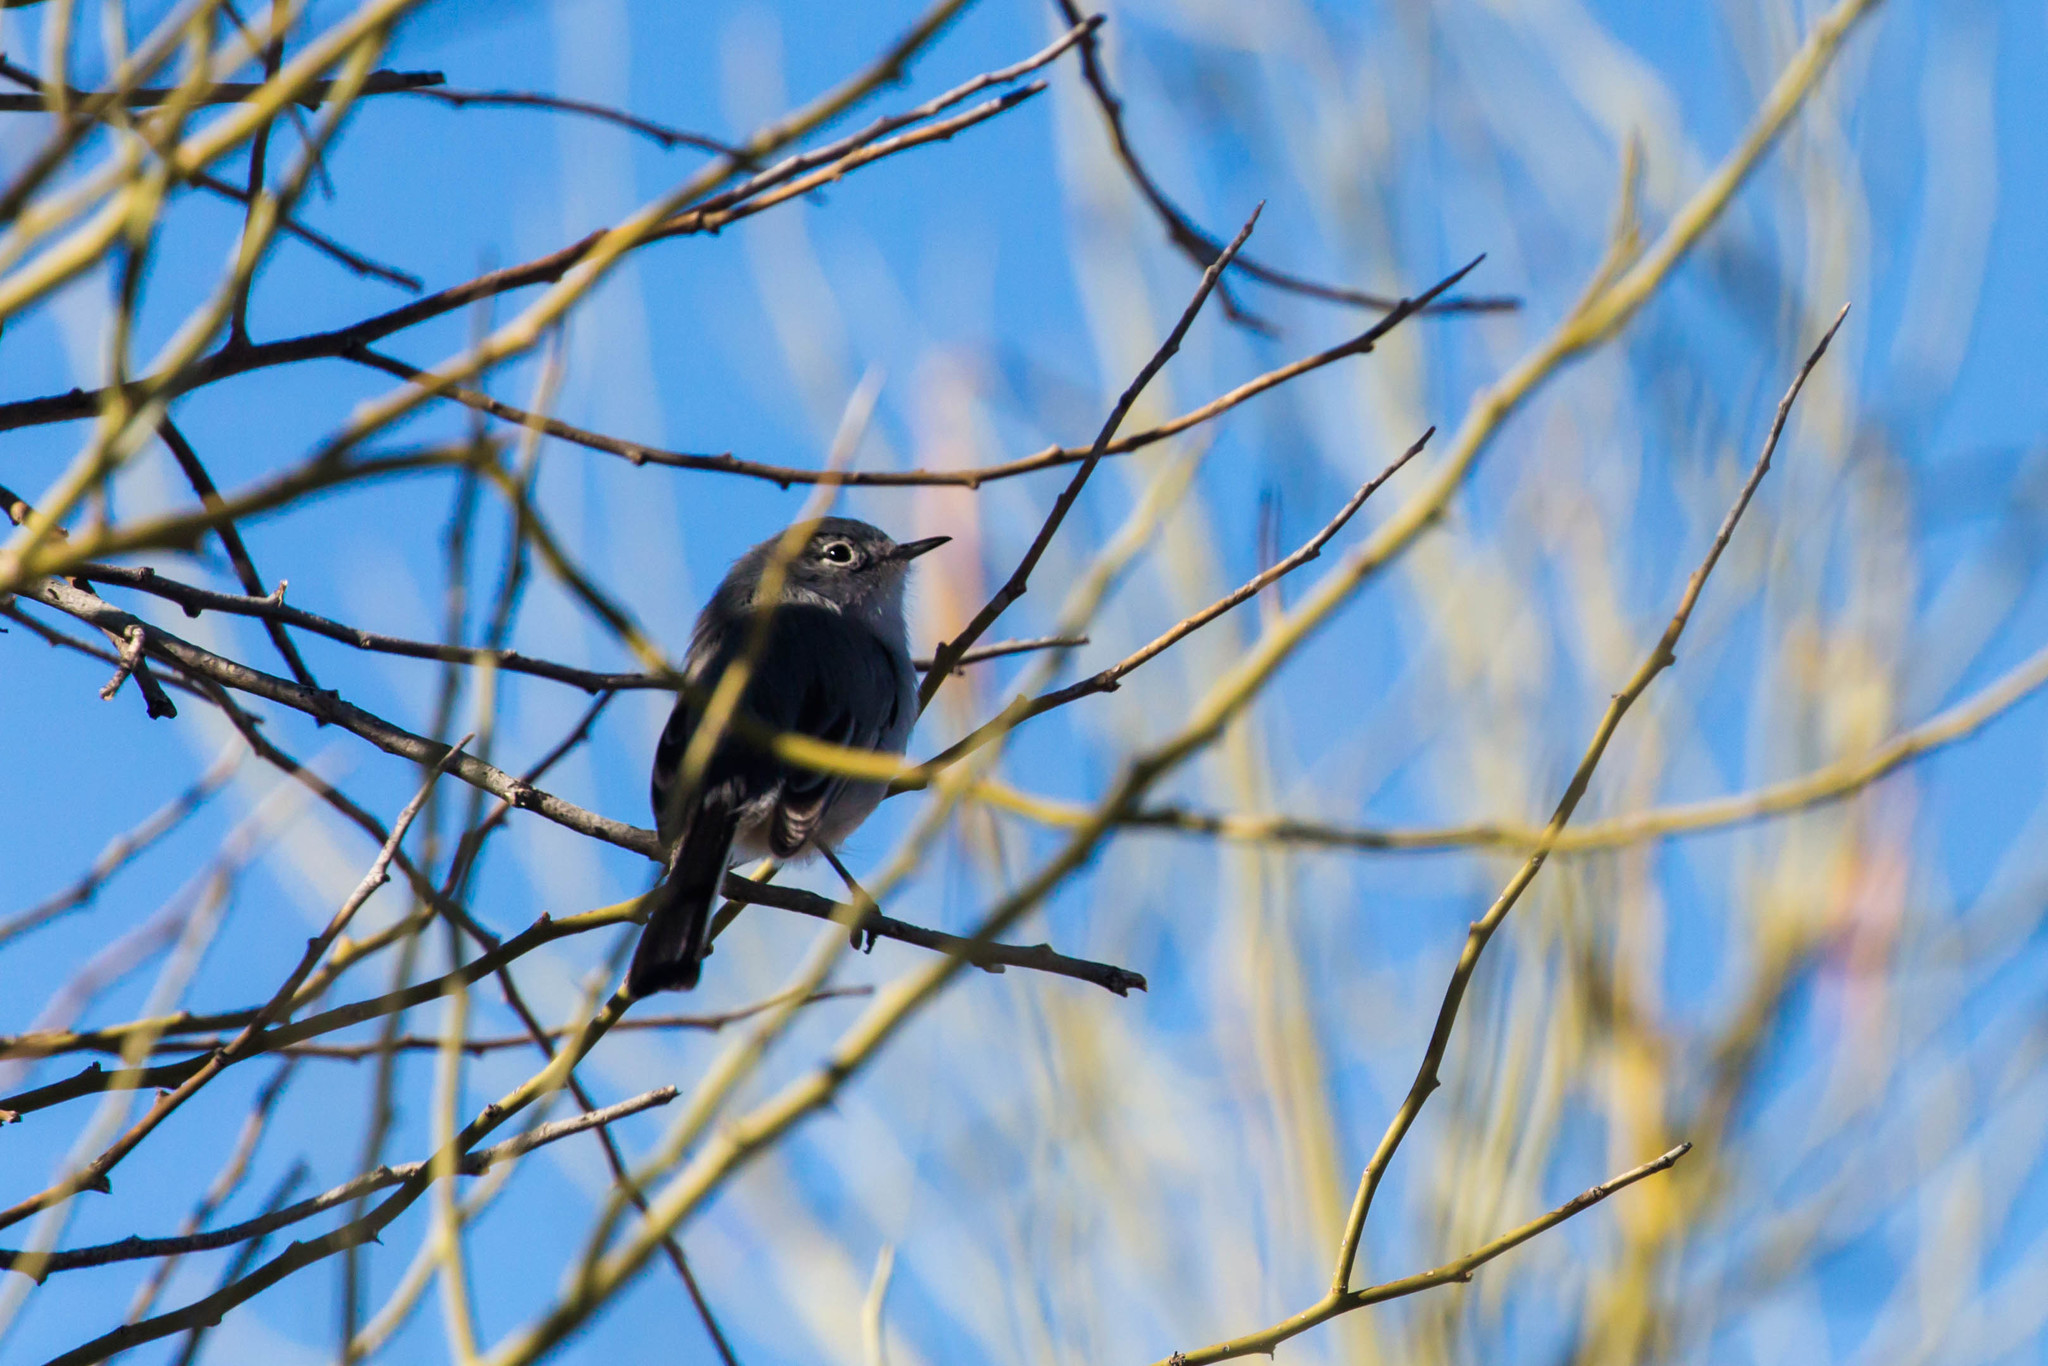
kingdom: Animalia
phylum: Chordata
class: Aves
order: Passeriformes
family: Polioptilidae
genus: Polioptila
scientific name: Polioptila
